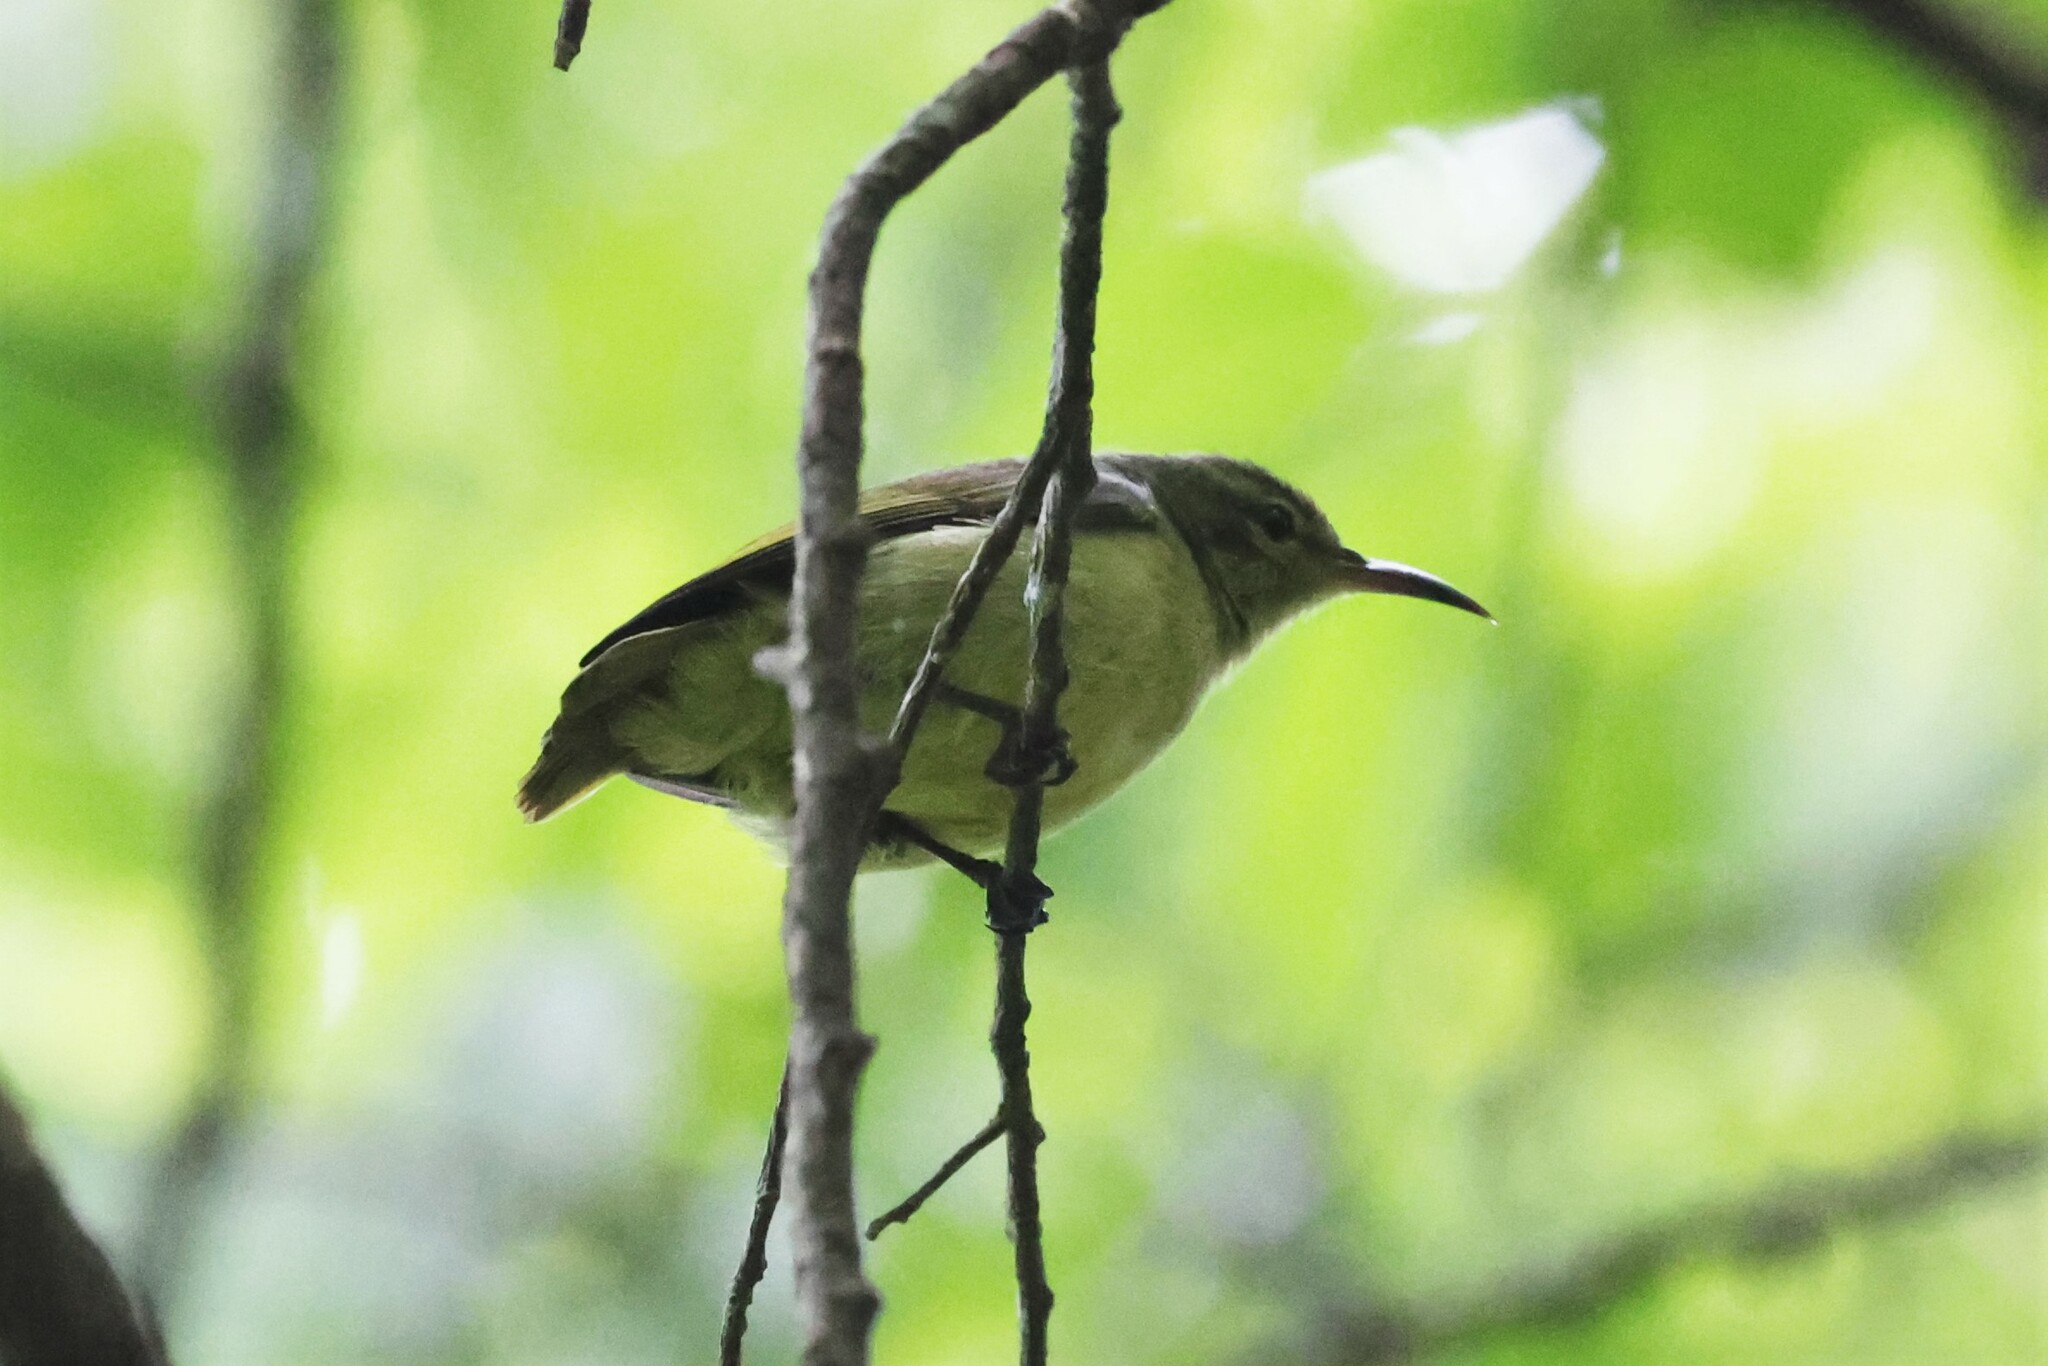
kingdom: Animalia
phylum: Chordata
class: Aves
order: Passeriformes
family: Nectariniidae
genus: Anthreptes
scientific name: Anthreptes seimundi
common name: Little green sunbird
